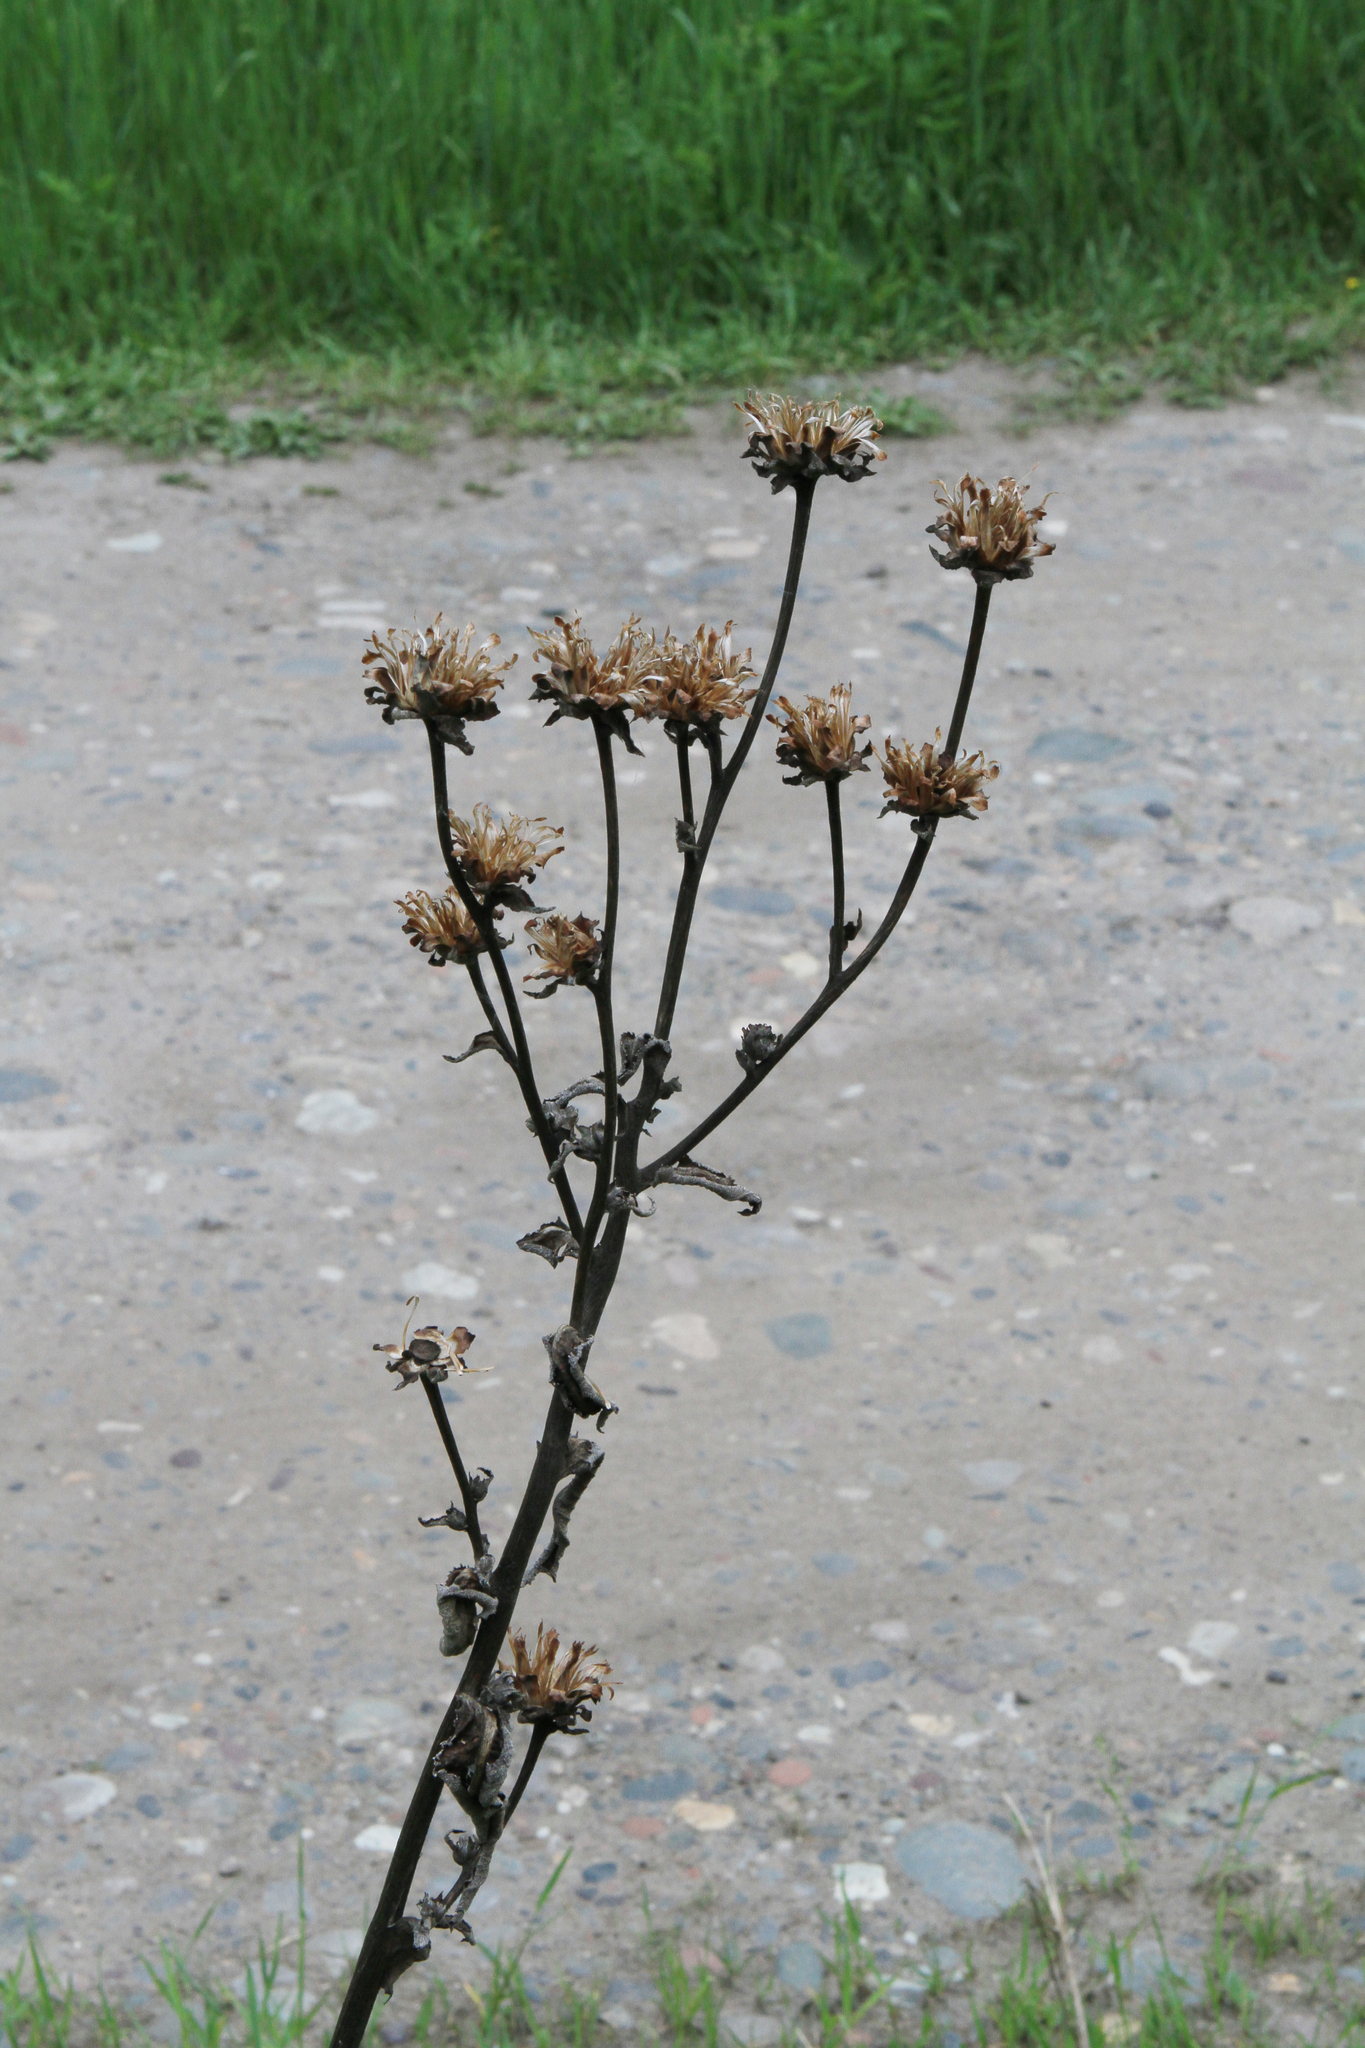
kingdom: Plantae
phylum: Tracheophyta
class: Magnoliopsida
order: Asterales
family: Asteraceae
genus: Inula
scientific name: Inula helenium
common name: Elecampane
